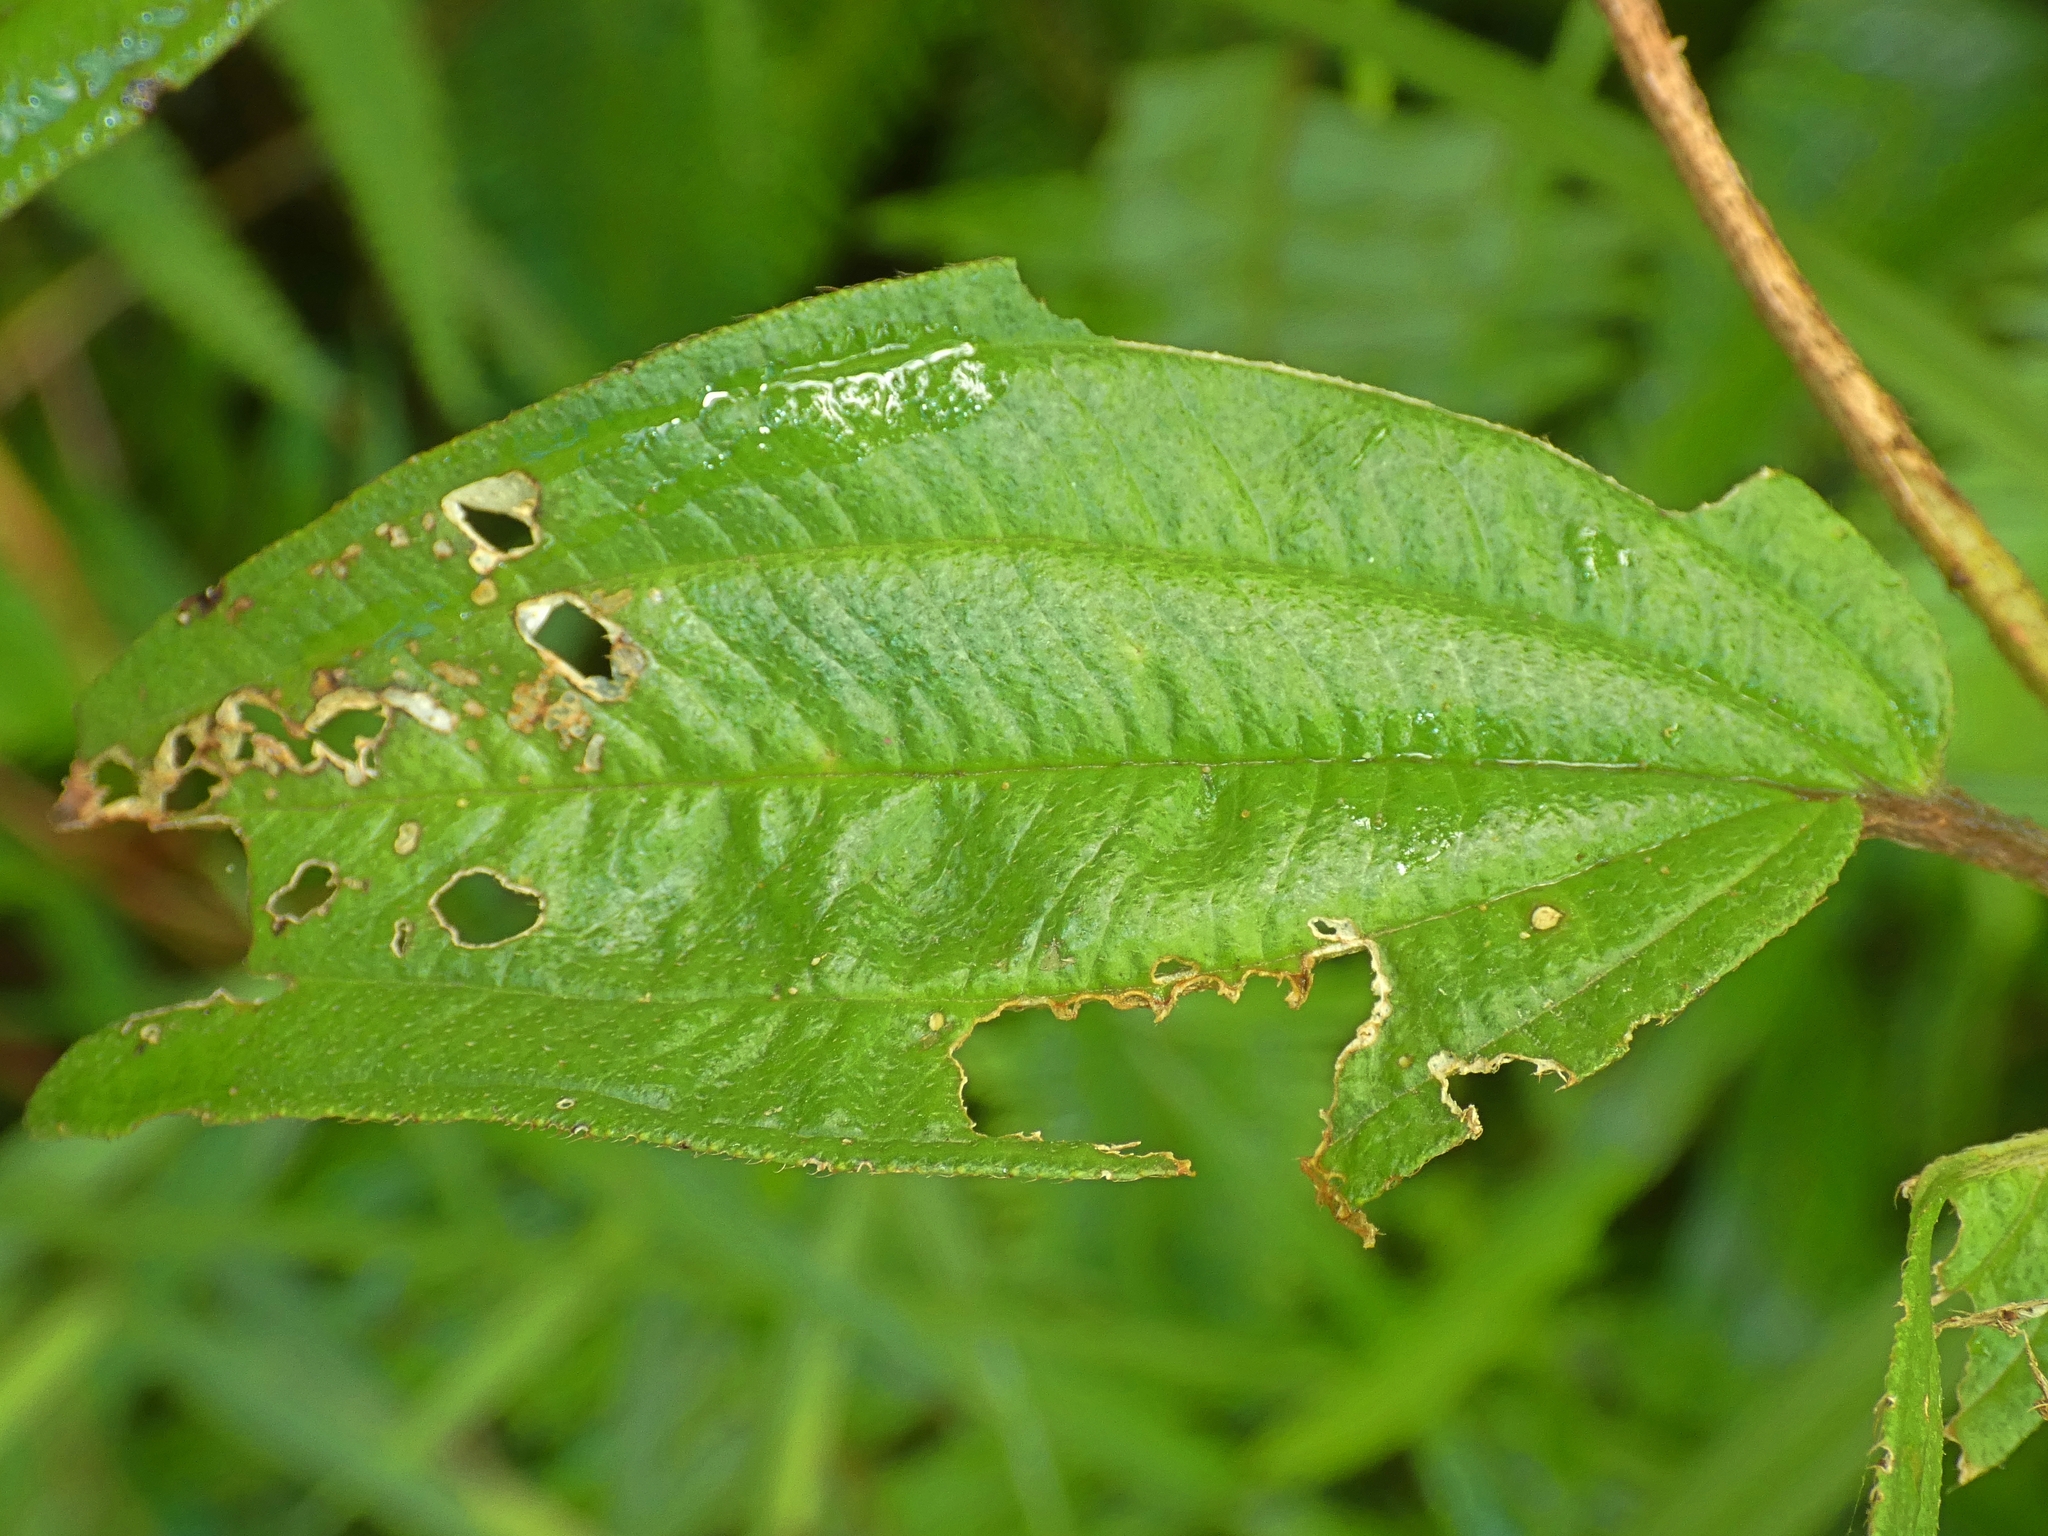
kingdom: Plantae
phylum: Tracheophyta
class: Magnoliopsida
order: Myrtales
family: Melastomataceae
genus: Melastoma
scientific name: Melastoma cyanoides
